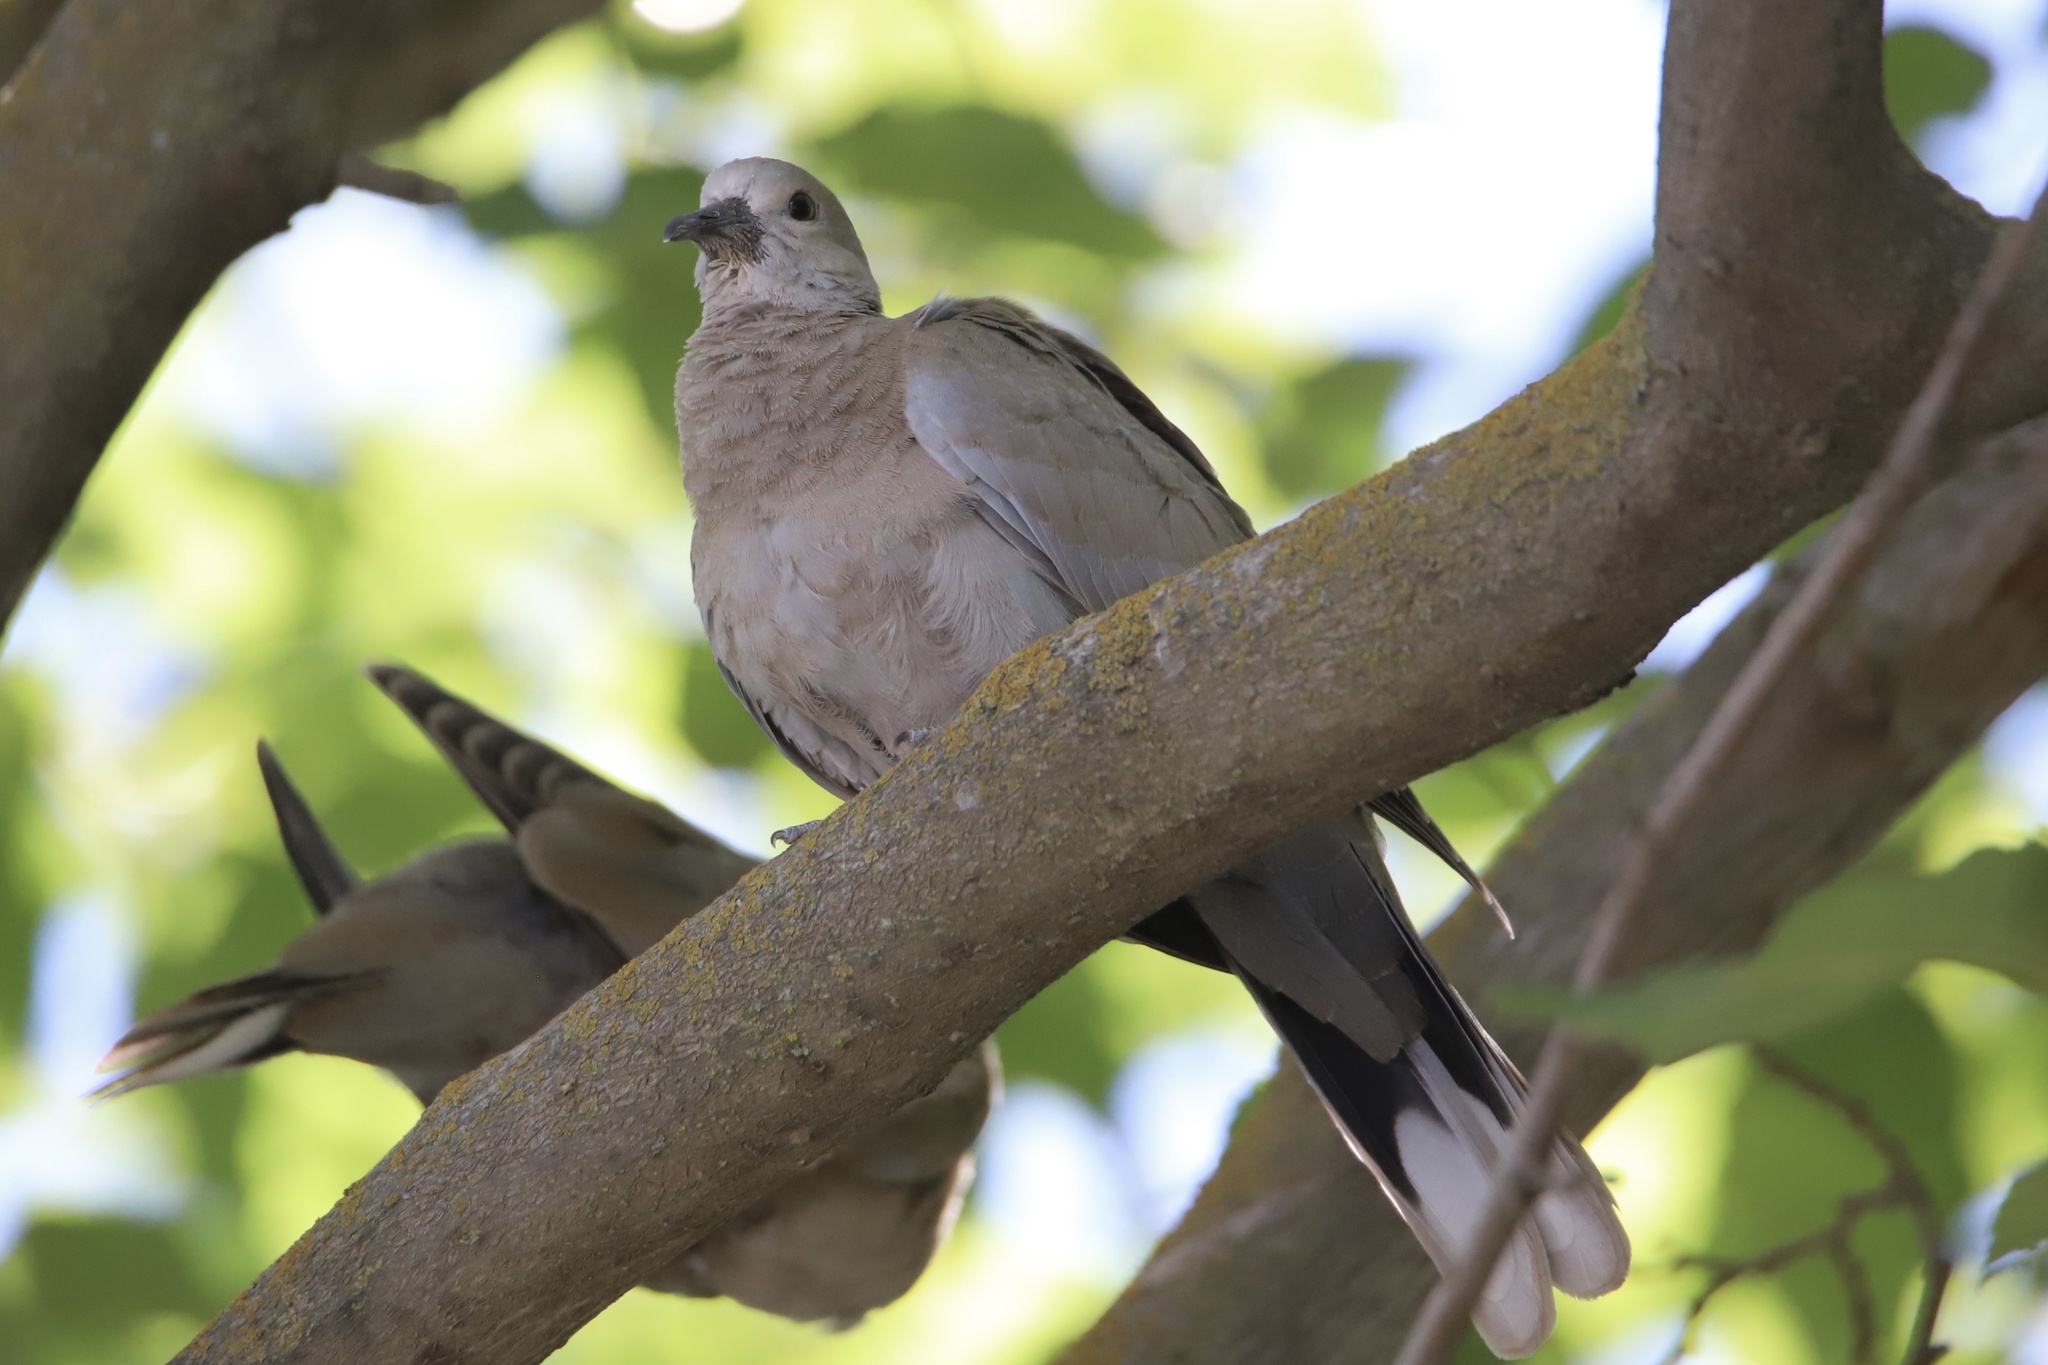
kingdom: Animalia
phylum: Chordata
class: Aves
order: Columbiformes
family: Columbidae
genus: Streptopelia
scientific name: Streptopelia decaocto
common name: Eurasian collared dove
